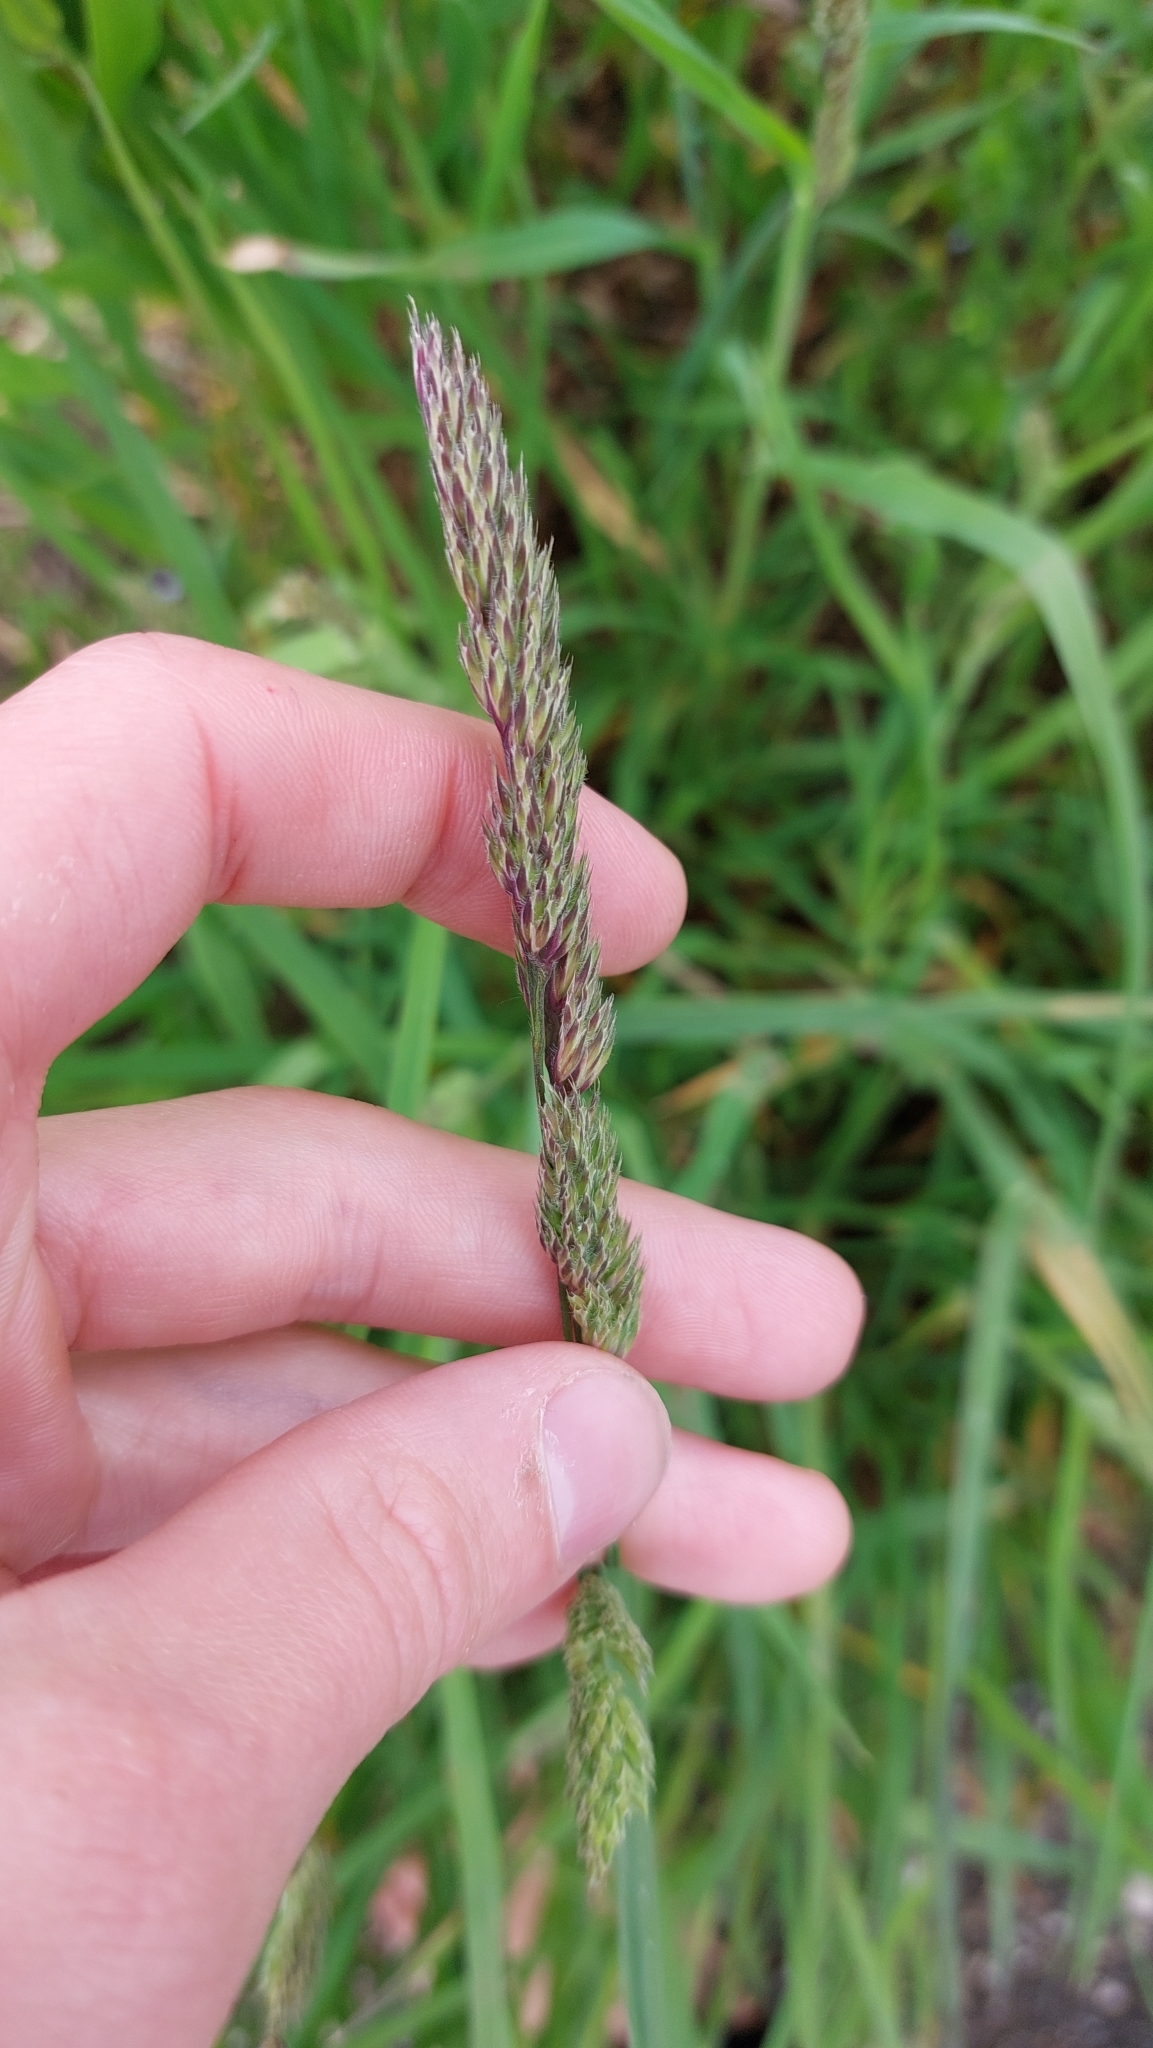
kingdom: Plantae
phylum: Tracheophyta
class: Liliopsida
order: Poales
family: Poaceae
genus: Dactylis
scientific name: Dactylis glomerata
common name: Orchardgrass
